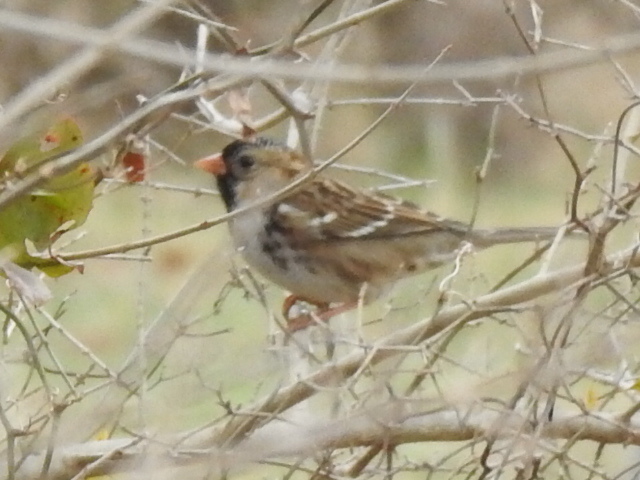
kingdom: Animalia
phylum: Chordata
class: Aves
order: Passeriformes
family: Passerellidae
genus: Zonotrichia
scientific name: Zonotrichia querula
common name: Harris's sparrow
